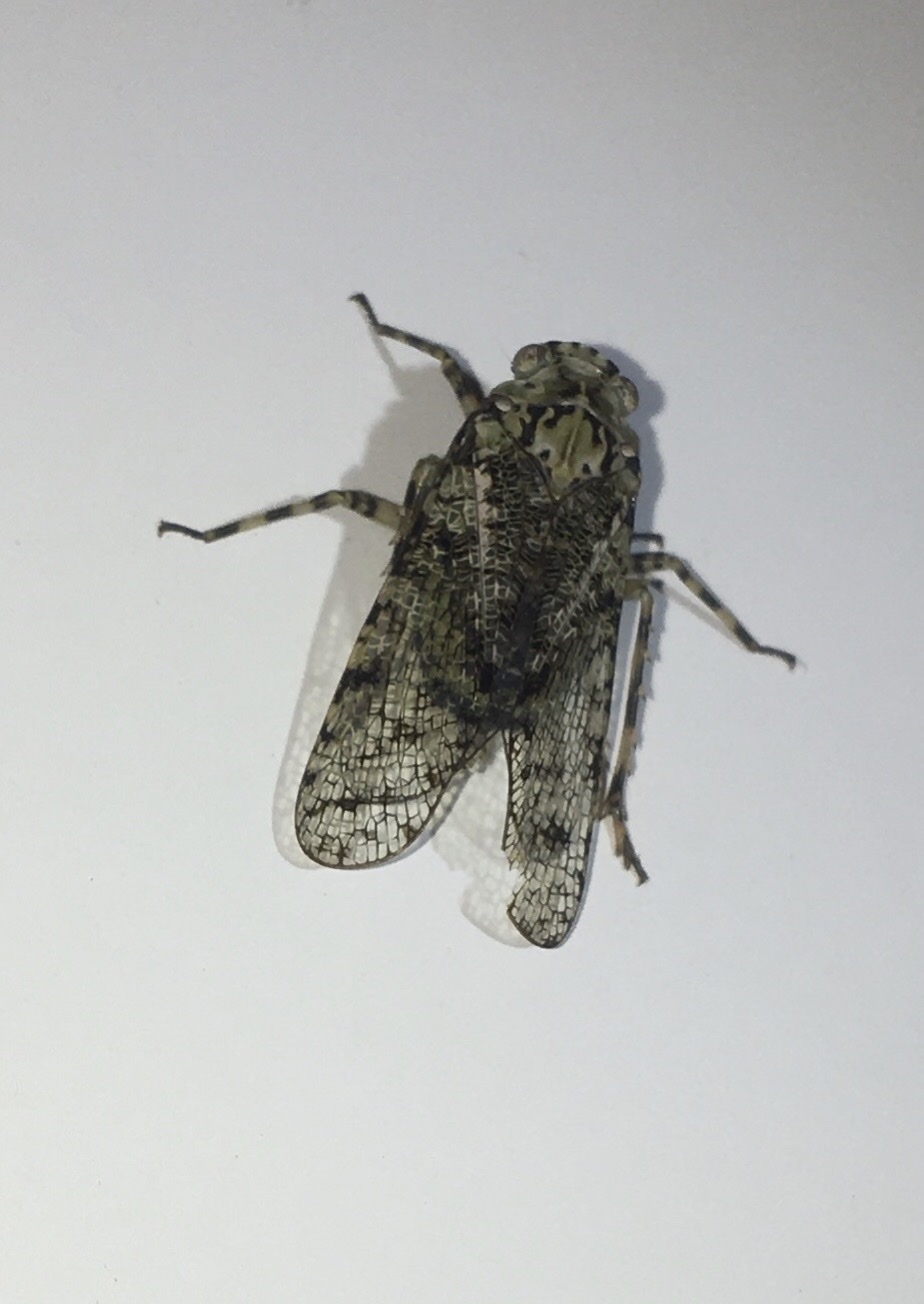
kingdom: Animalia
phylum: Arthropoda
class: Insecta
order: Hemiptera
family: Fulgoridae
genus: Calyptoproctus
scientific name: Calyptoproctus marmoratus
